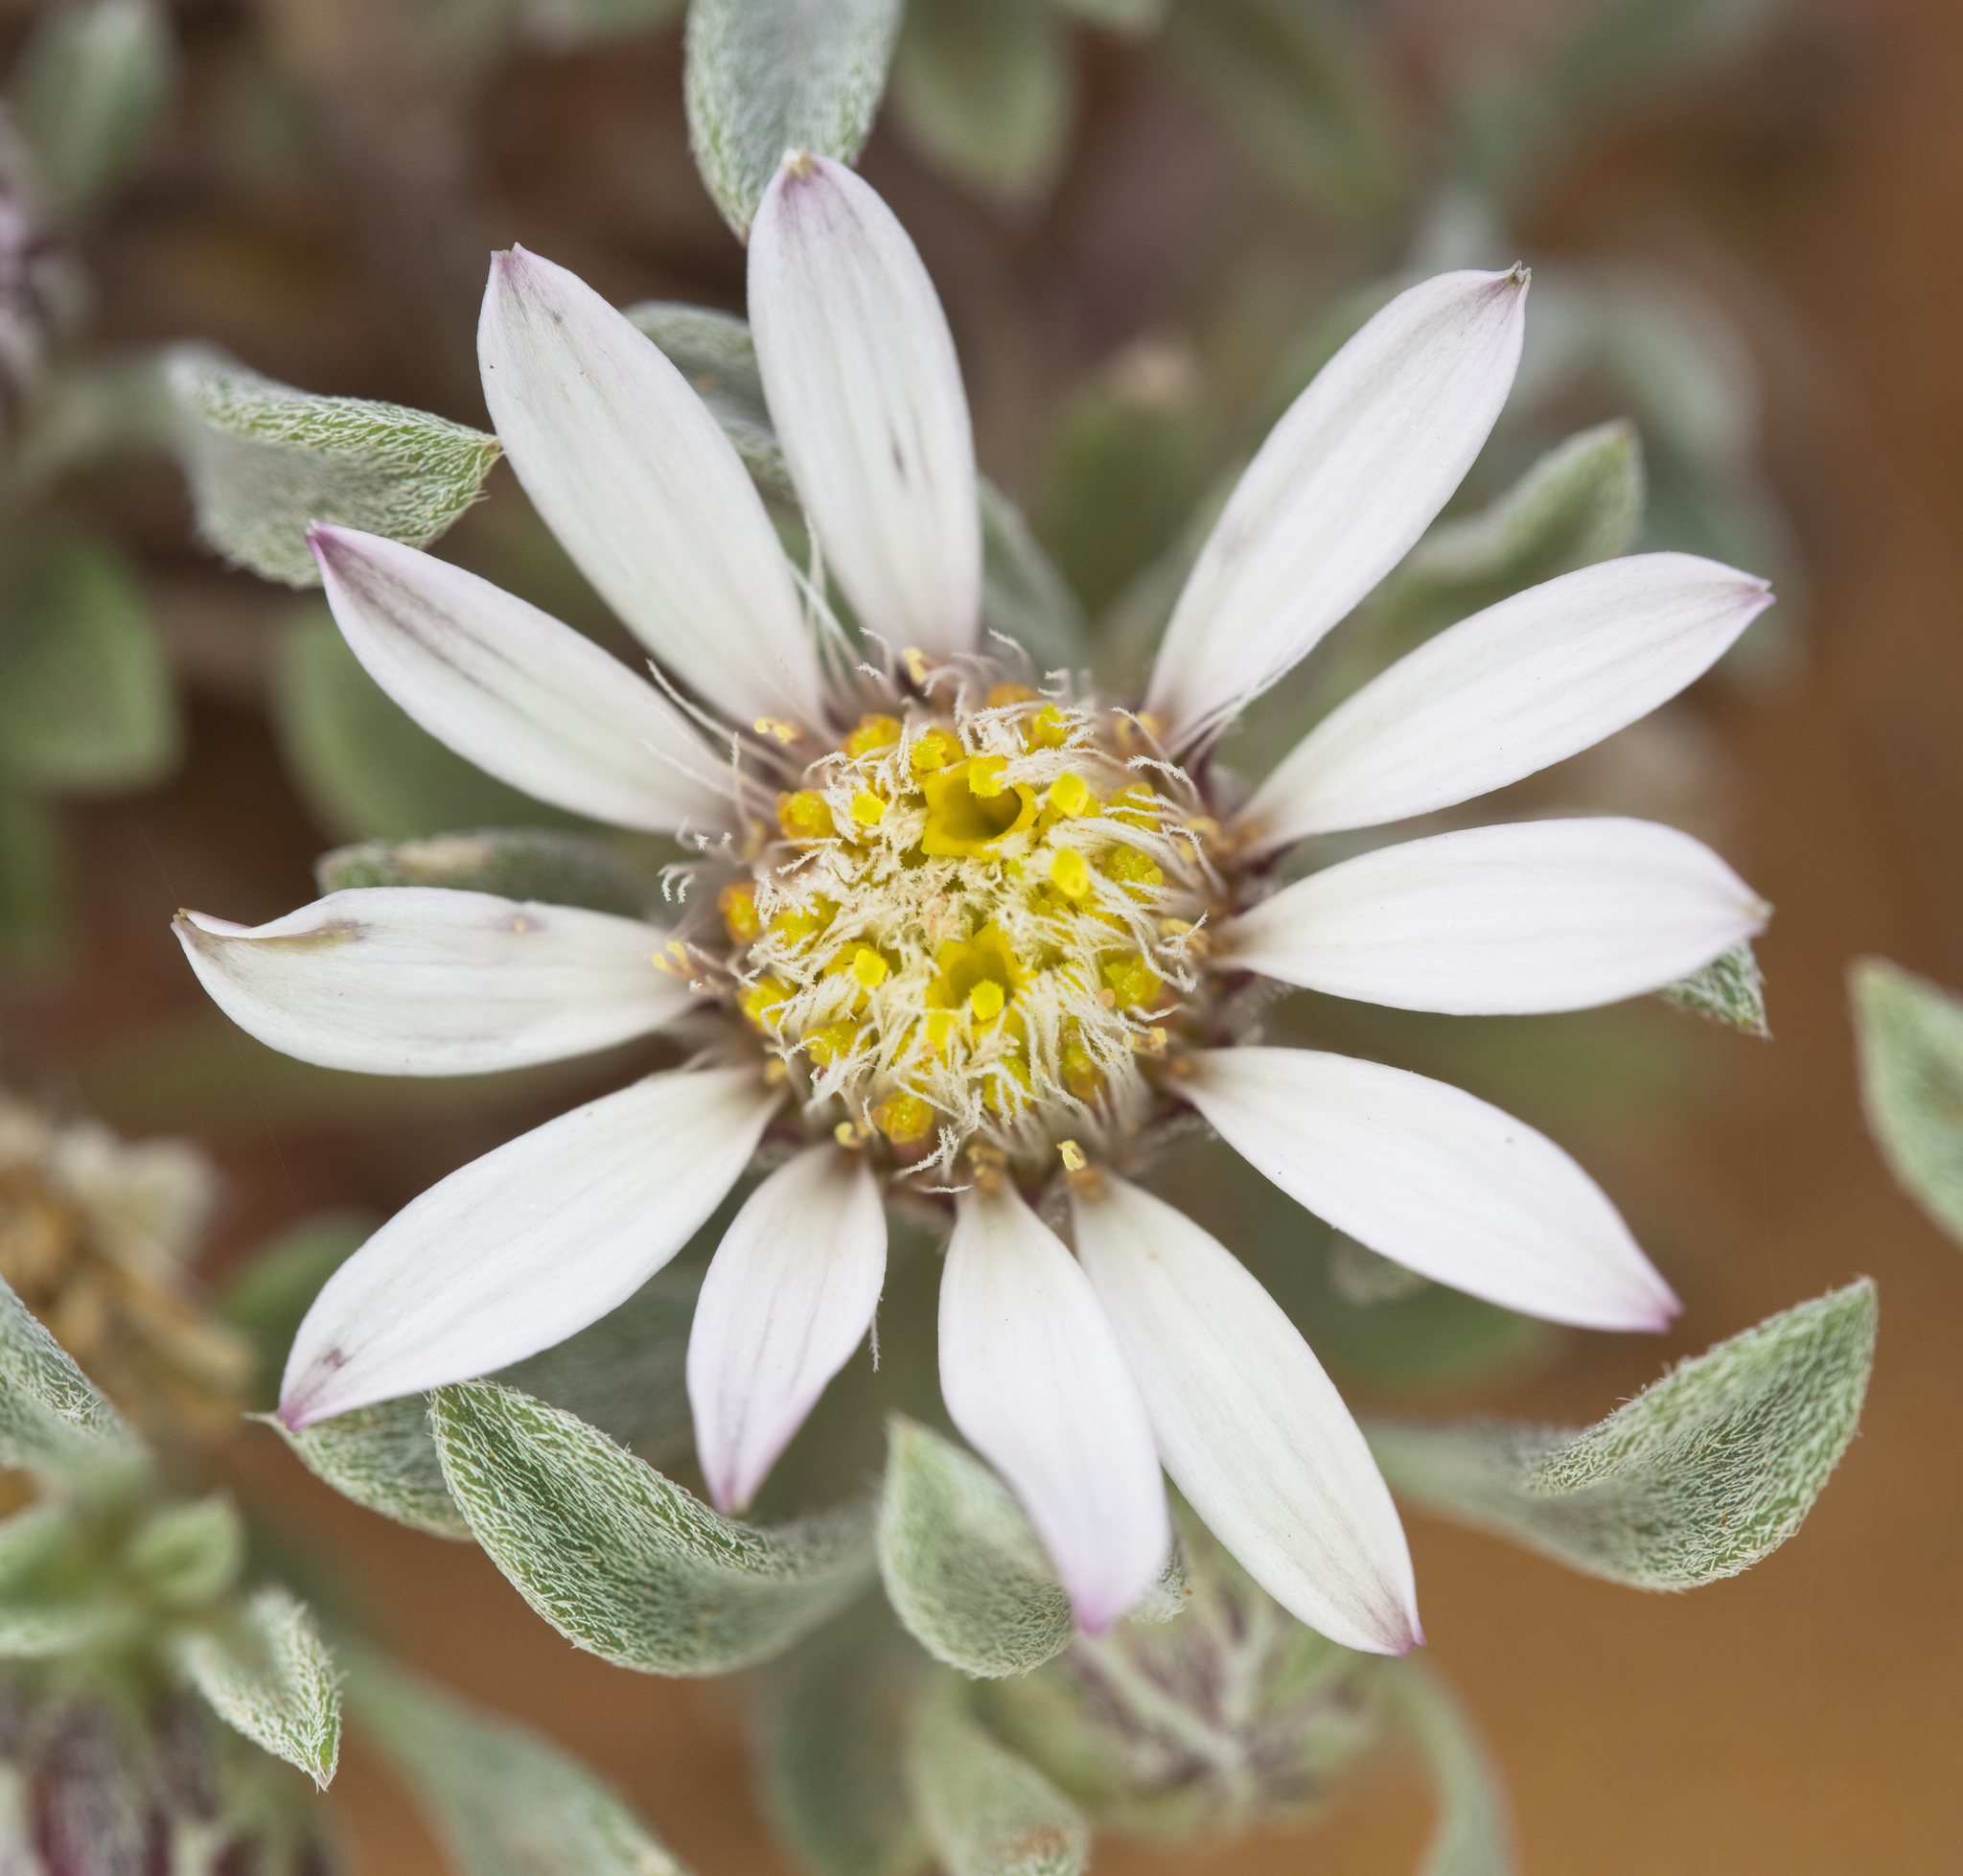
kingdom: Plantae
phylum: Tracheophyta
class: Magnoliopsida
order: Asterales
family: Asteraceae
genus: Townsendia
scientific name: Townsendia incana
